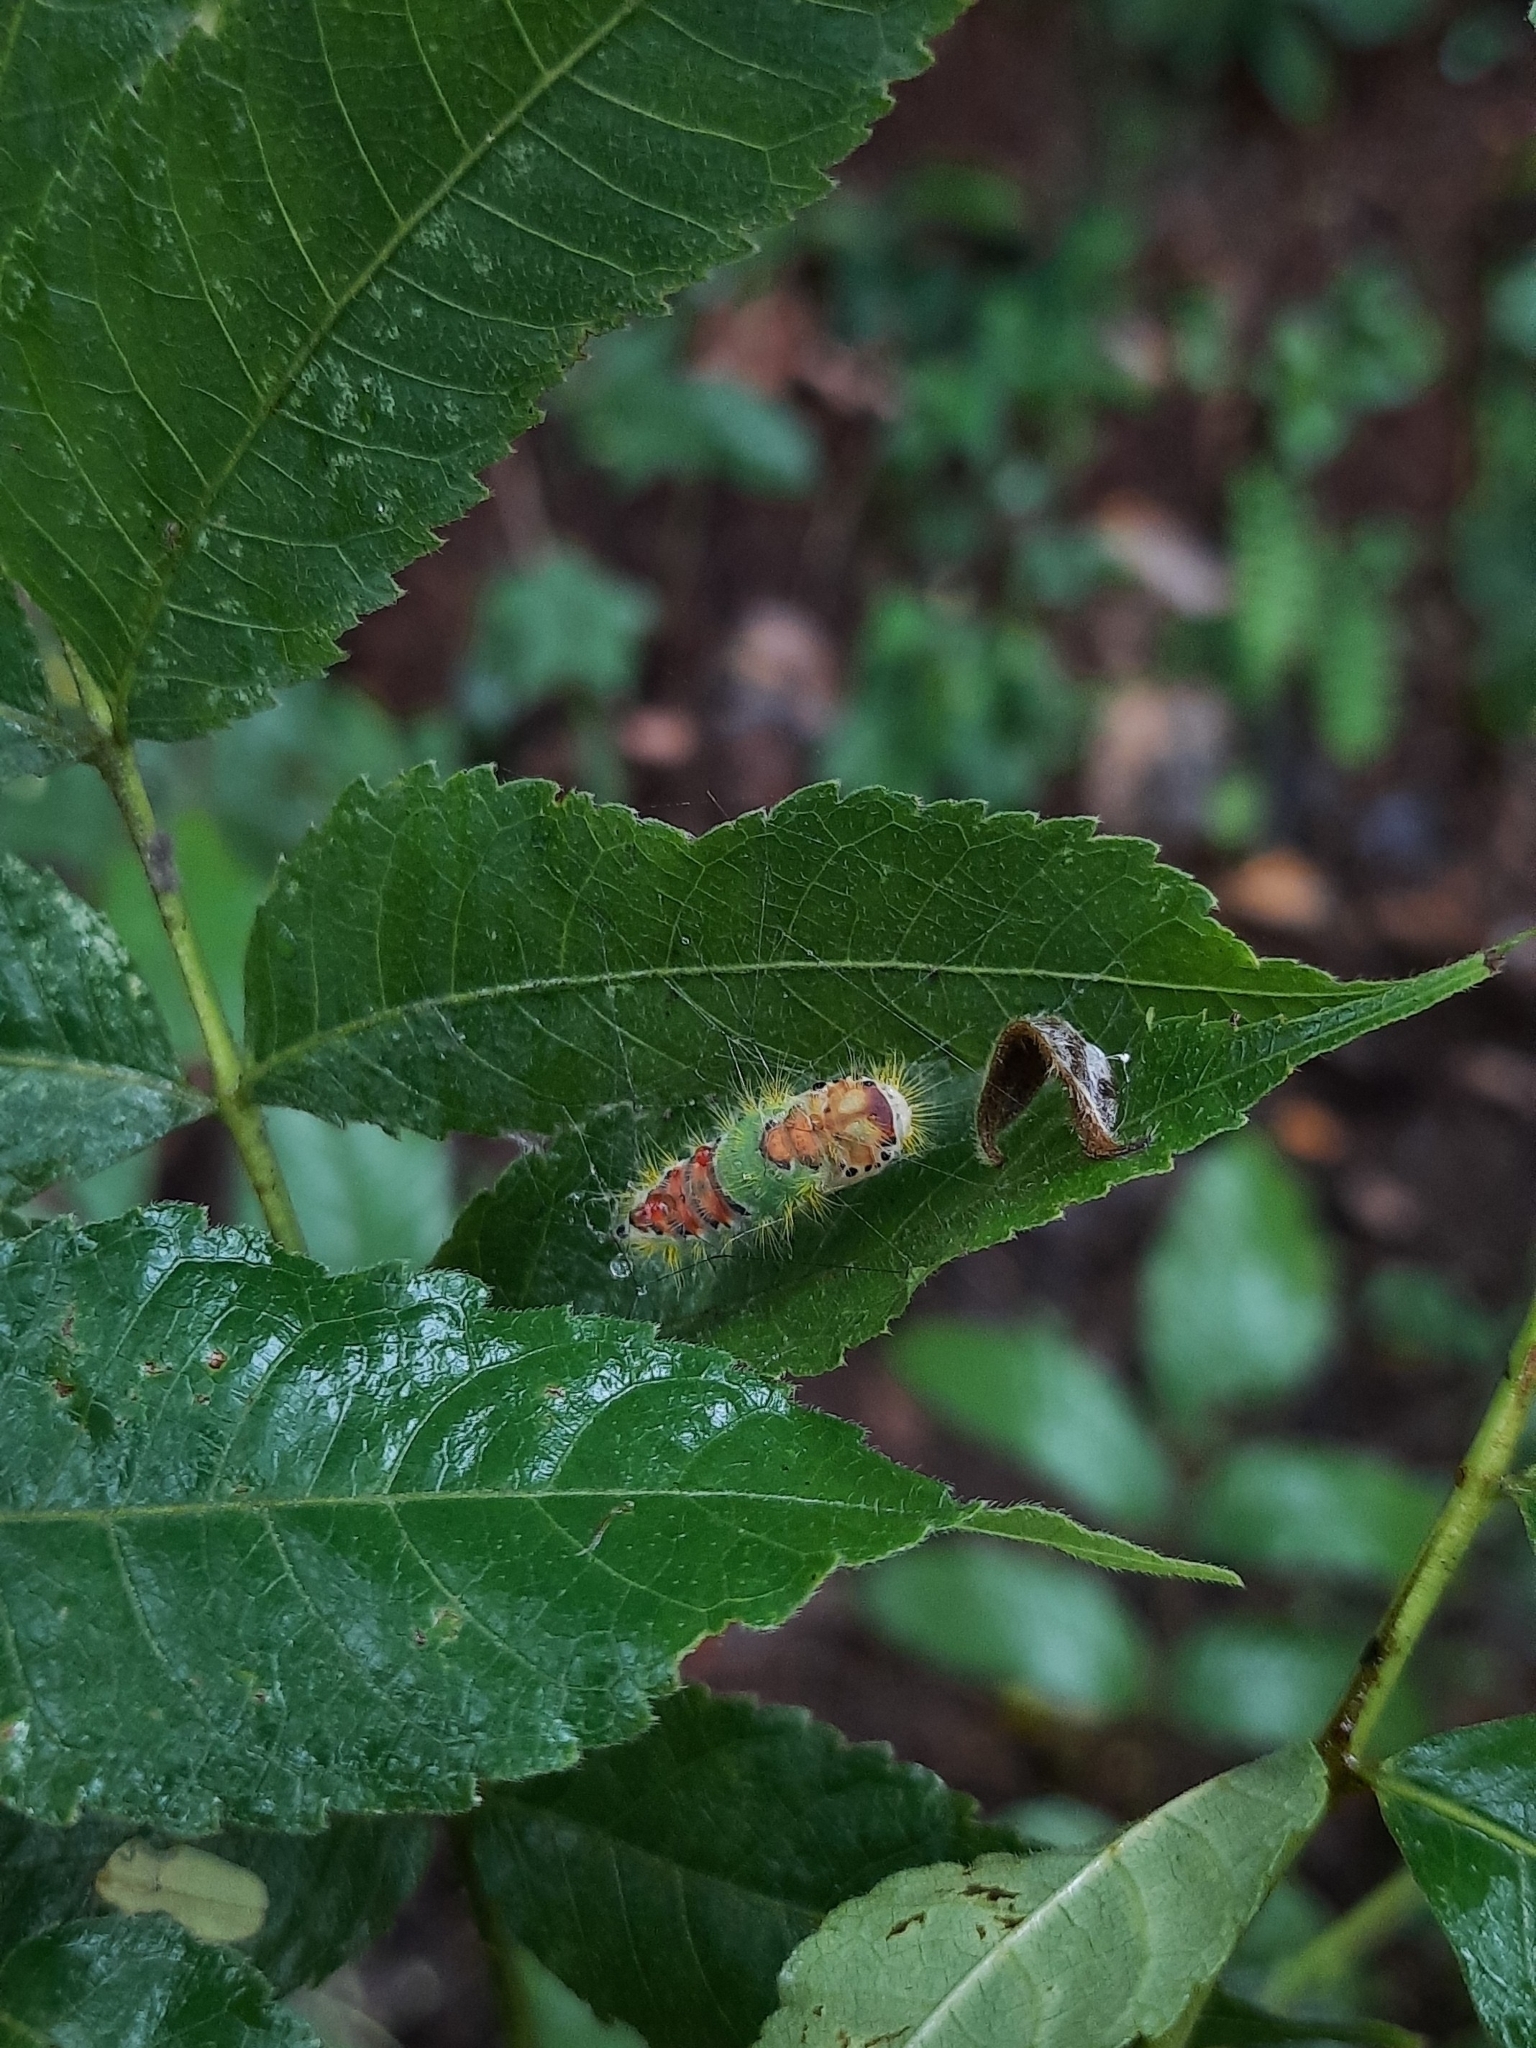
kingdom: Animalia
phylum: Arthropoda
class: Insecta
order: Lepidoptera
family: Erebidae
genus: Perina
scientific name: Perina nuda
